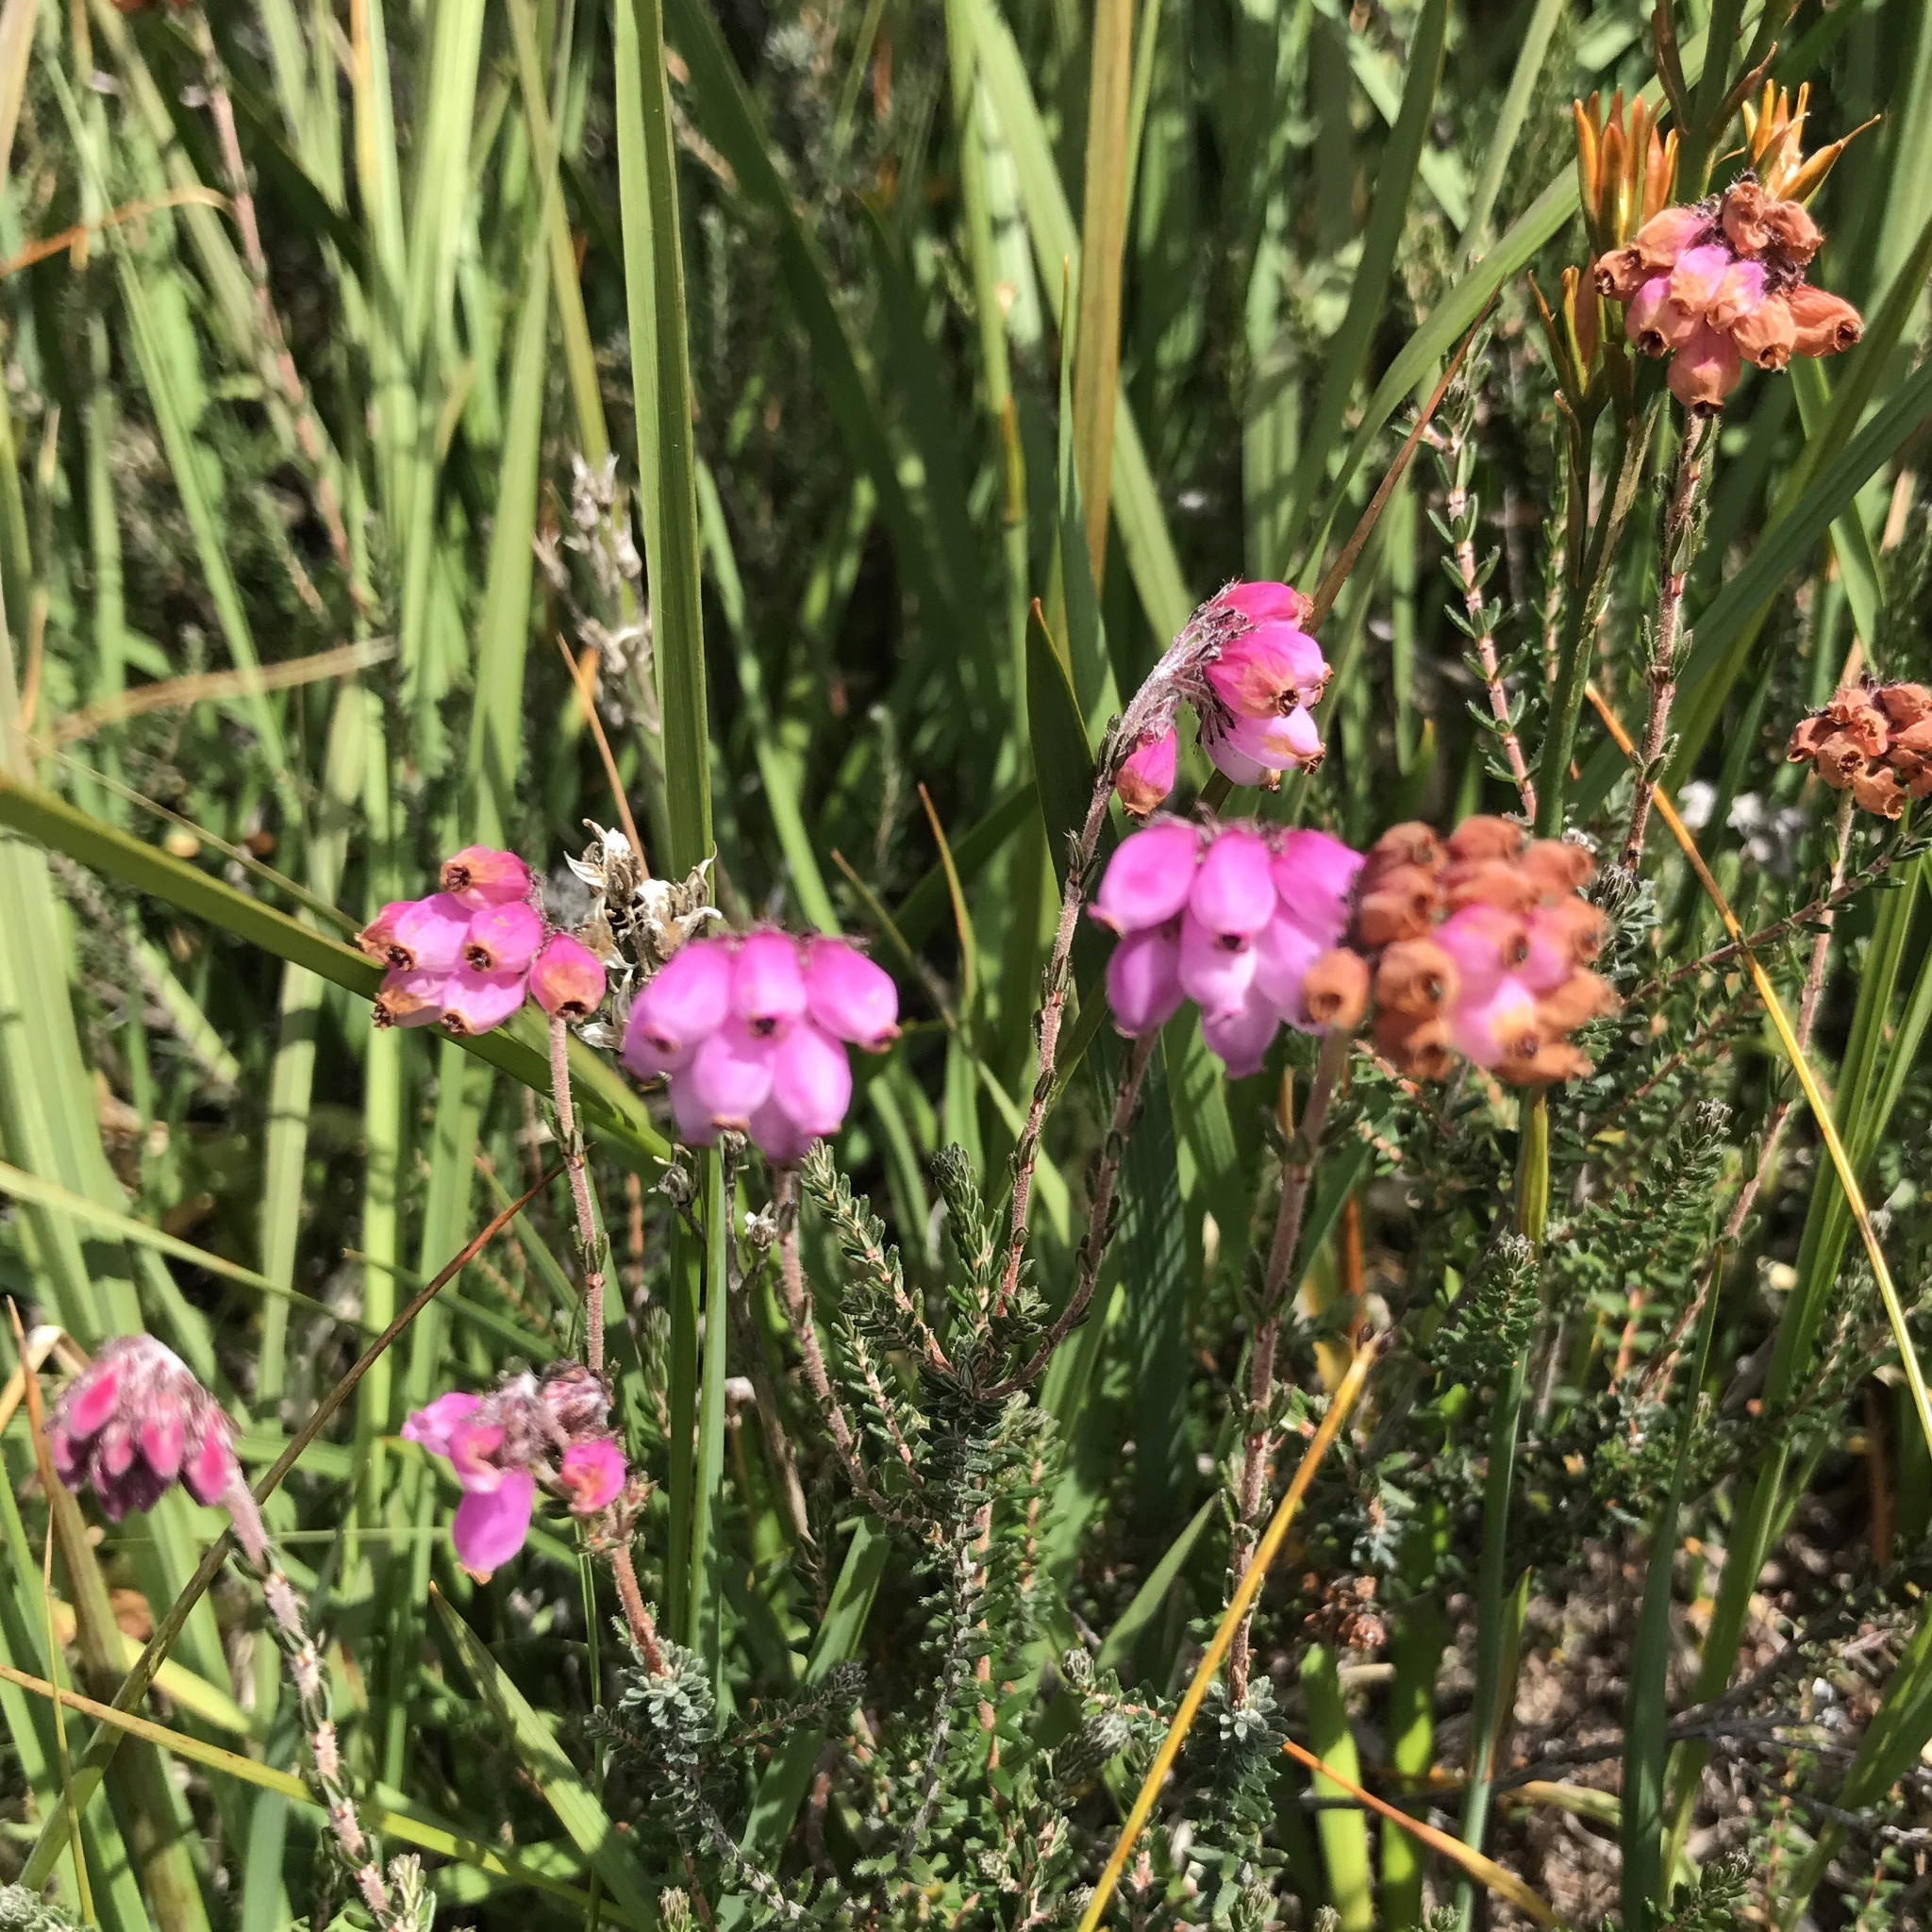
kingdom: Plantae
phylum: Tracheophyta
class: Magnoliopsida
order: Ericales
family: Ericaceae
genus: Erica
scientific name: Erica tetralix
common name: Cross-leaved heath
